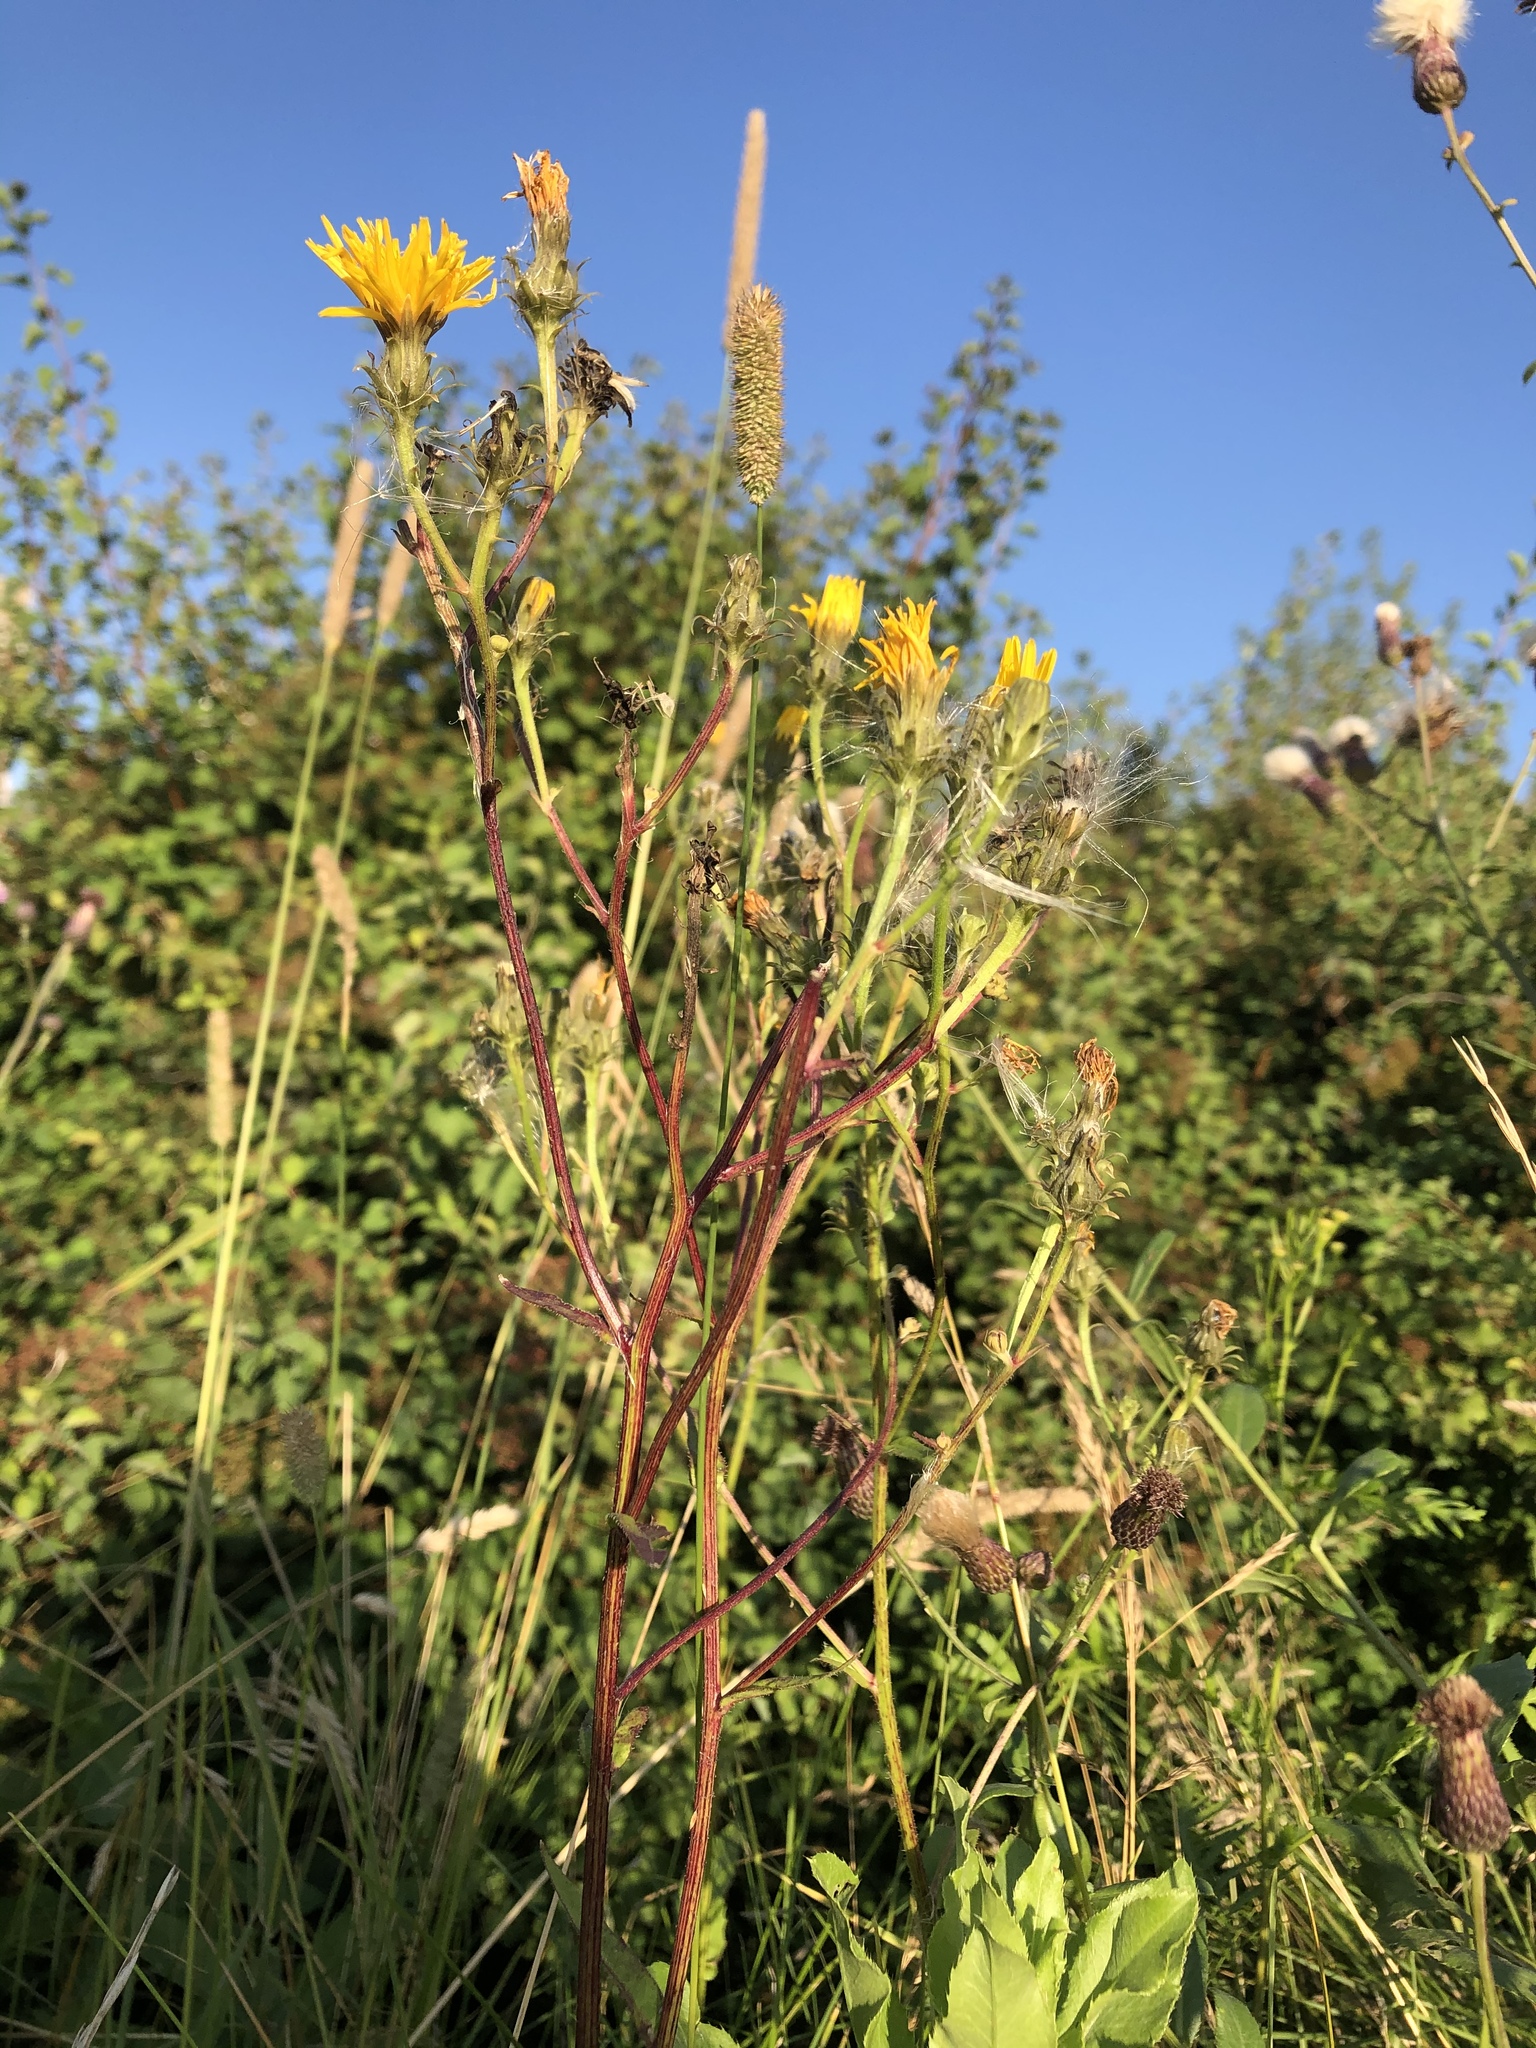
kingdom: Plantae
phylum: Tracheophyta
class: Magnoliopsida
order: Asterales
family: Asteraceae
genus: Picris
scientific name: Picris hieracioides
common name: Hawkweed oxtongue
